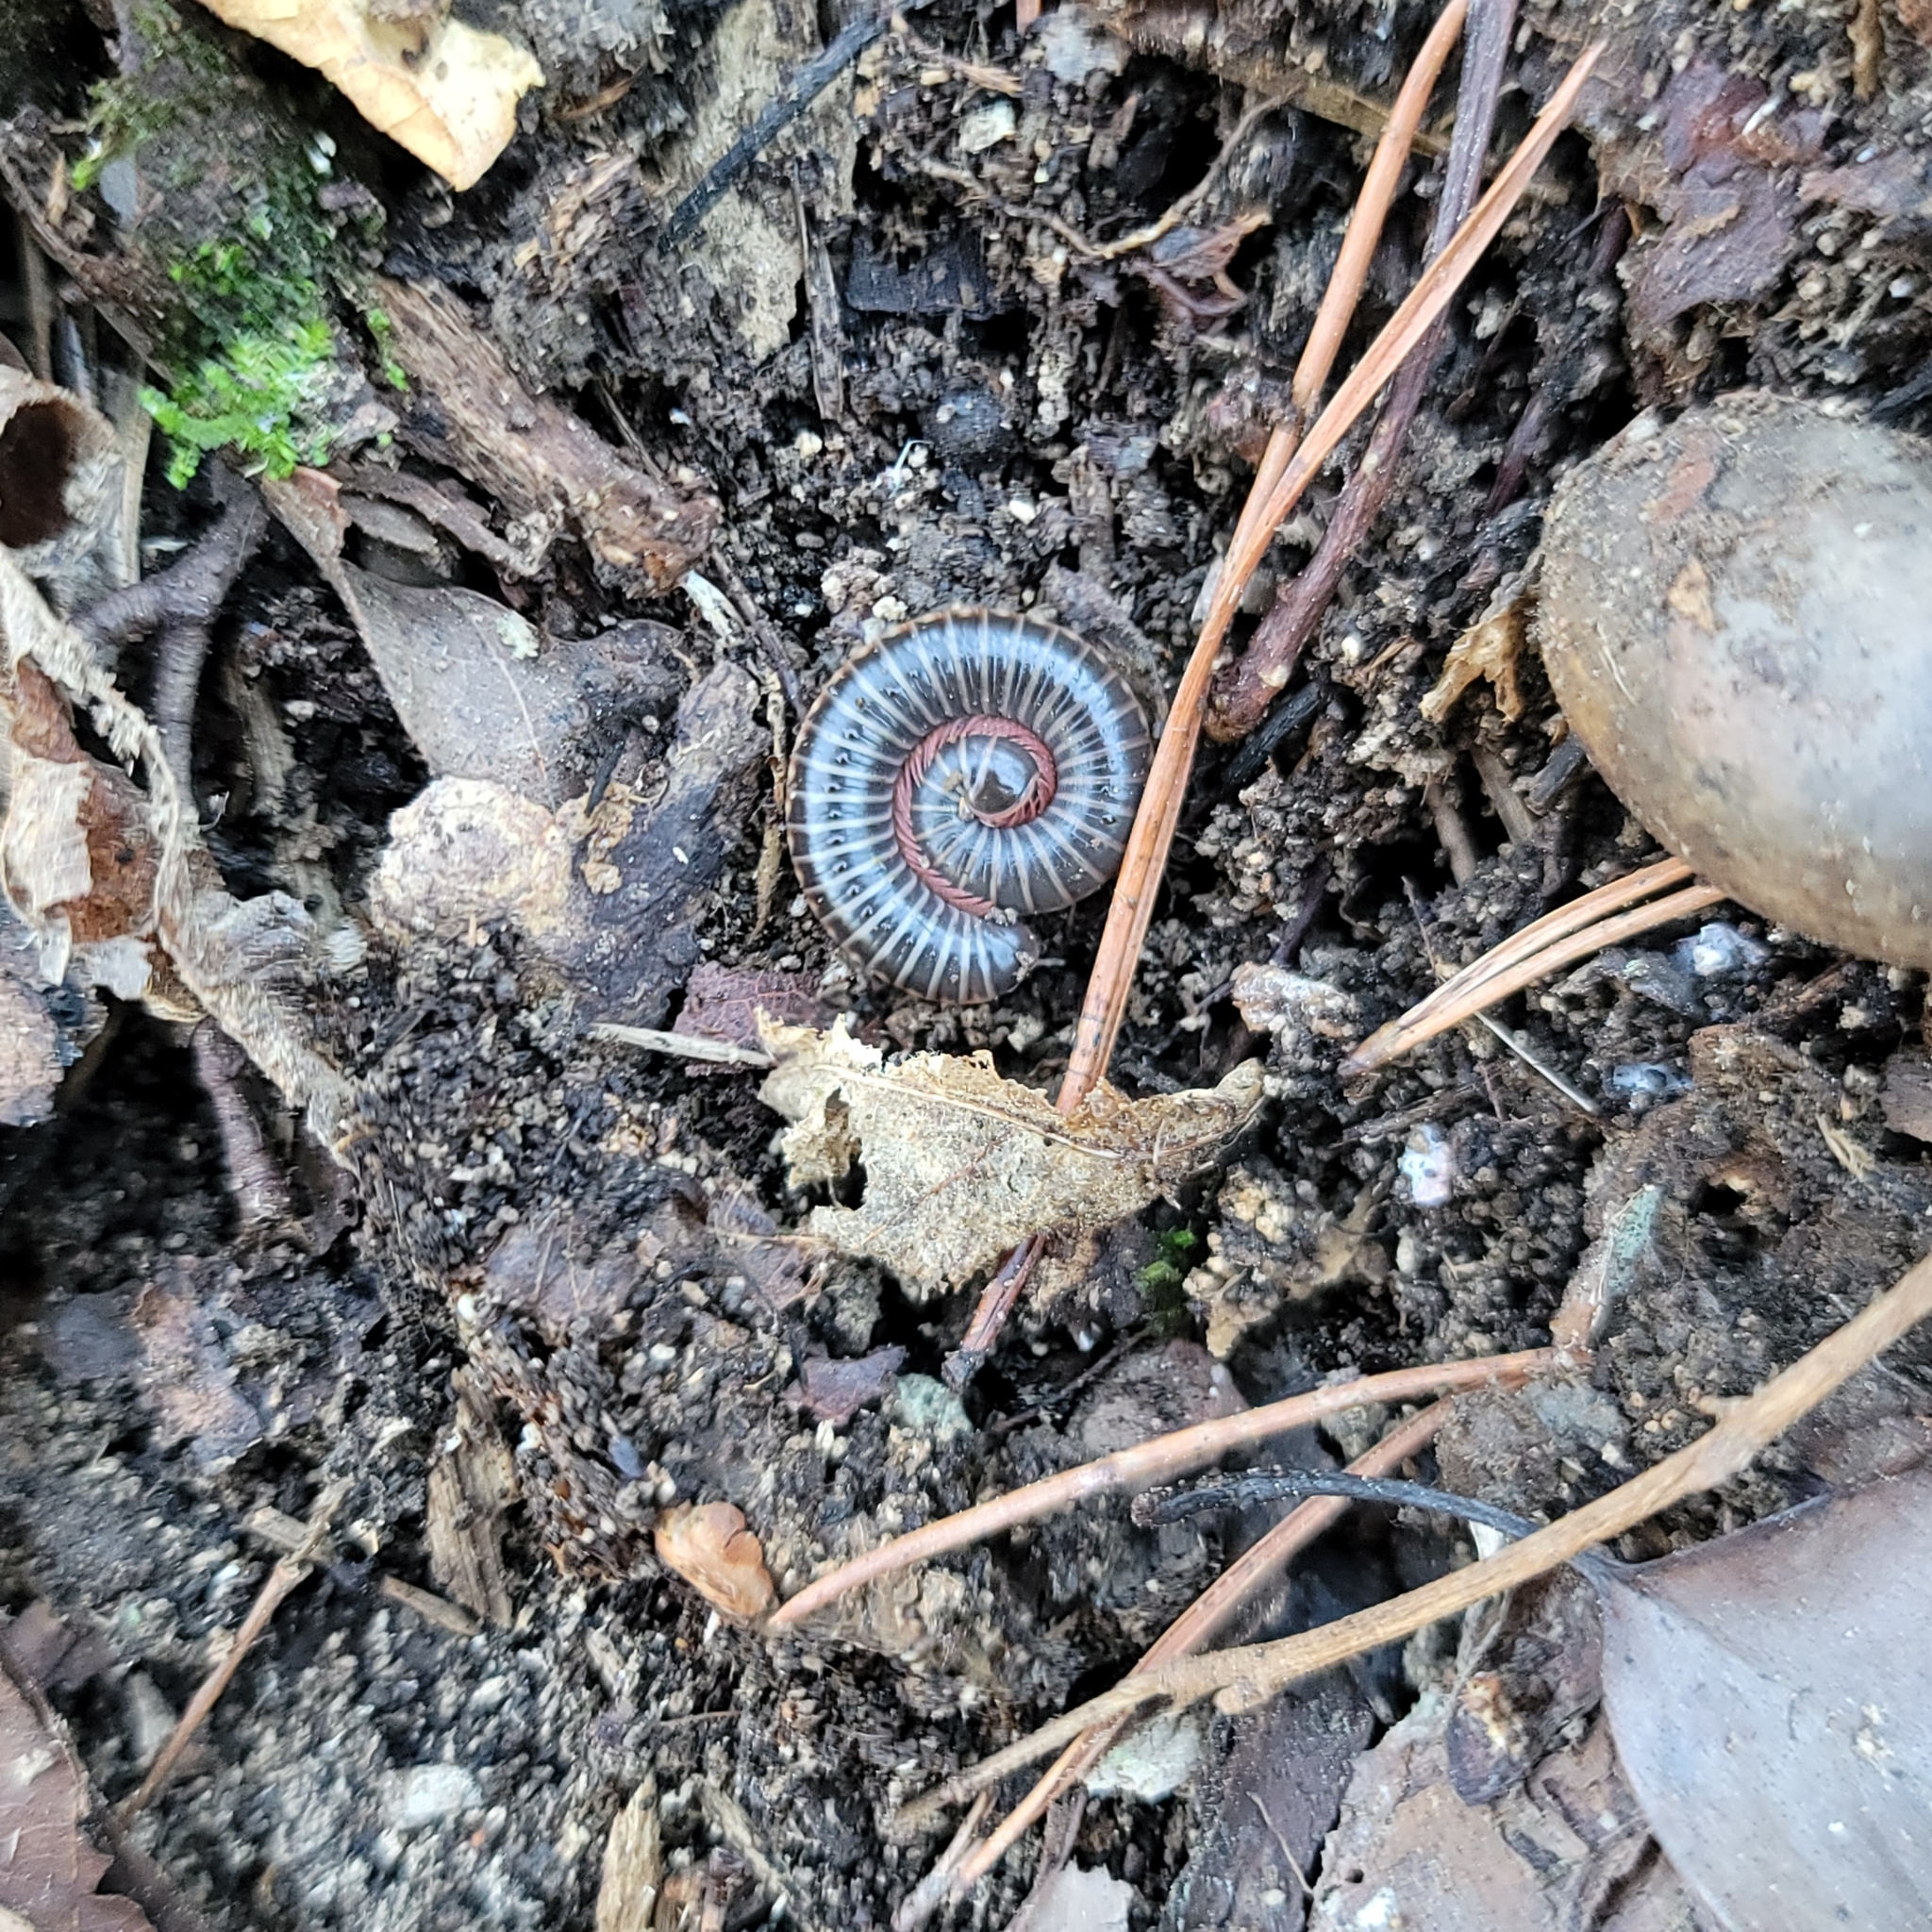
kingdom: Animalia
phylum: Arthropoda
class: Diplopoda
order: Spirostreptida
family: Choctellidae
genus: Choctella
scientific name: Choctella hubrichti
